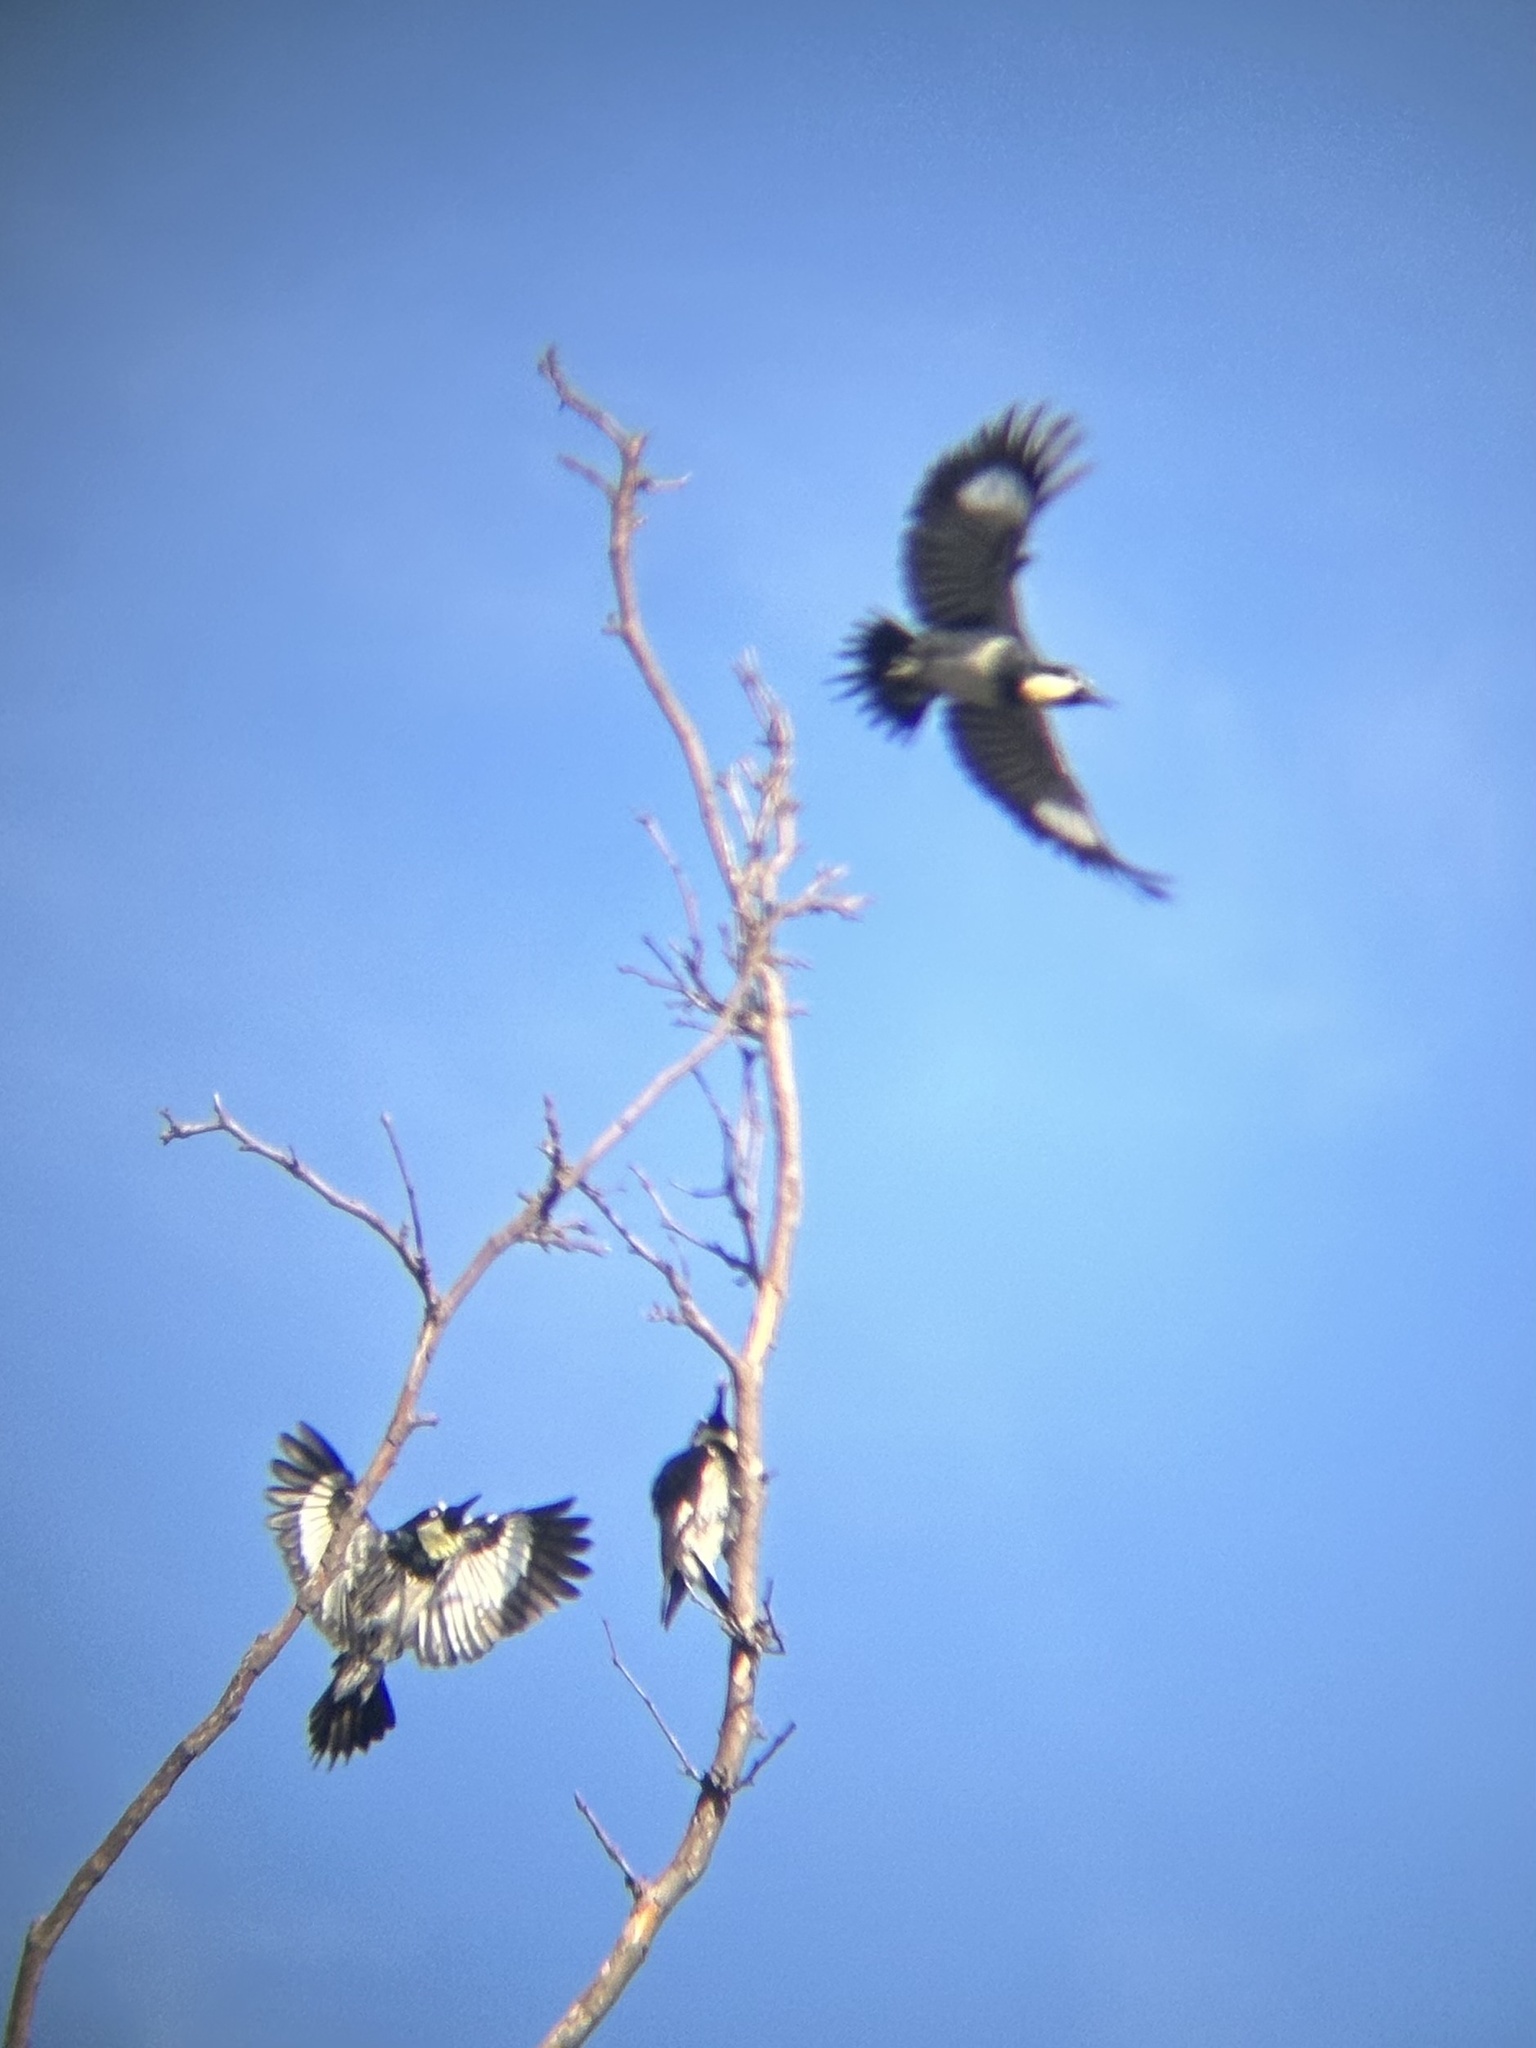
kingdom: Animalia
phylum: Chordata
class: Aves
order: Piciformes
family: Picidae
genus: Melanerpes
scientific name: Melanerpes formicivorus
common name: Acorn woodpecker
